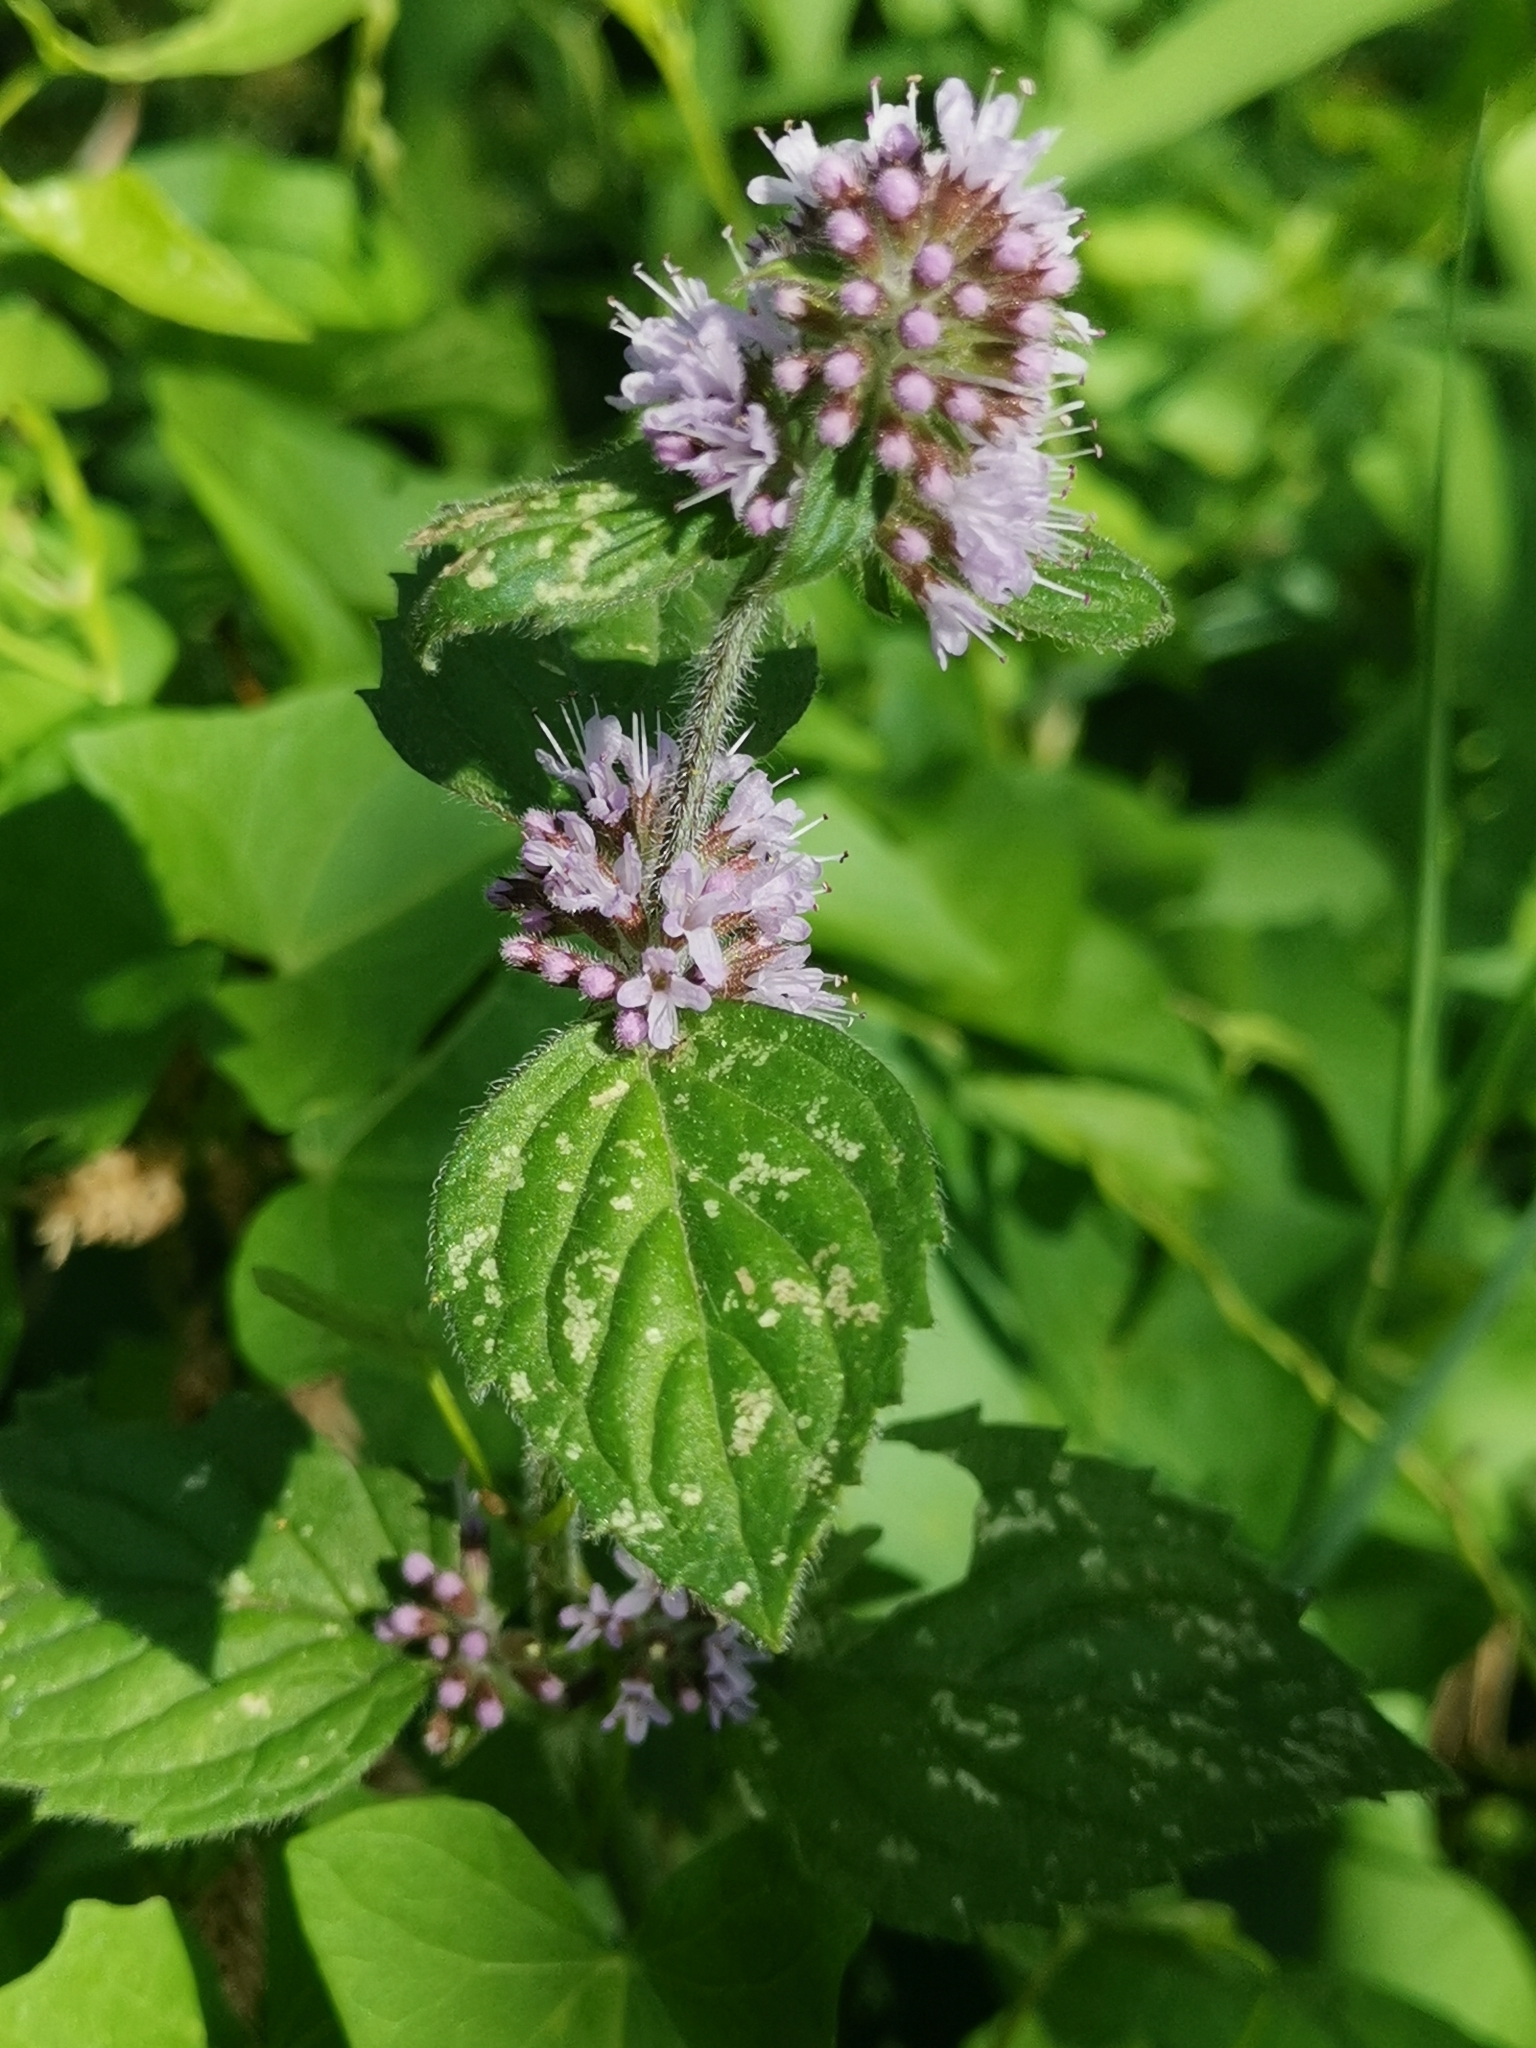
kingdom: Plantae
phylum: Tracheophyta
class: Magnoliopsida
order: Lamiales
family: Lamiaceae
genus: Mentha
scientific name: Mentha aquatica
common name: Water mint
